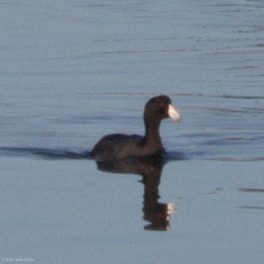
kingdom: Animalia
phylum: Chordata
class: Aves
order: Gruiformes
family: Rallidae
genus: Fulica
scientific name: Fulica americana
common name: American coot
